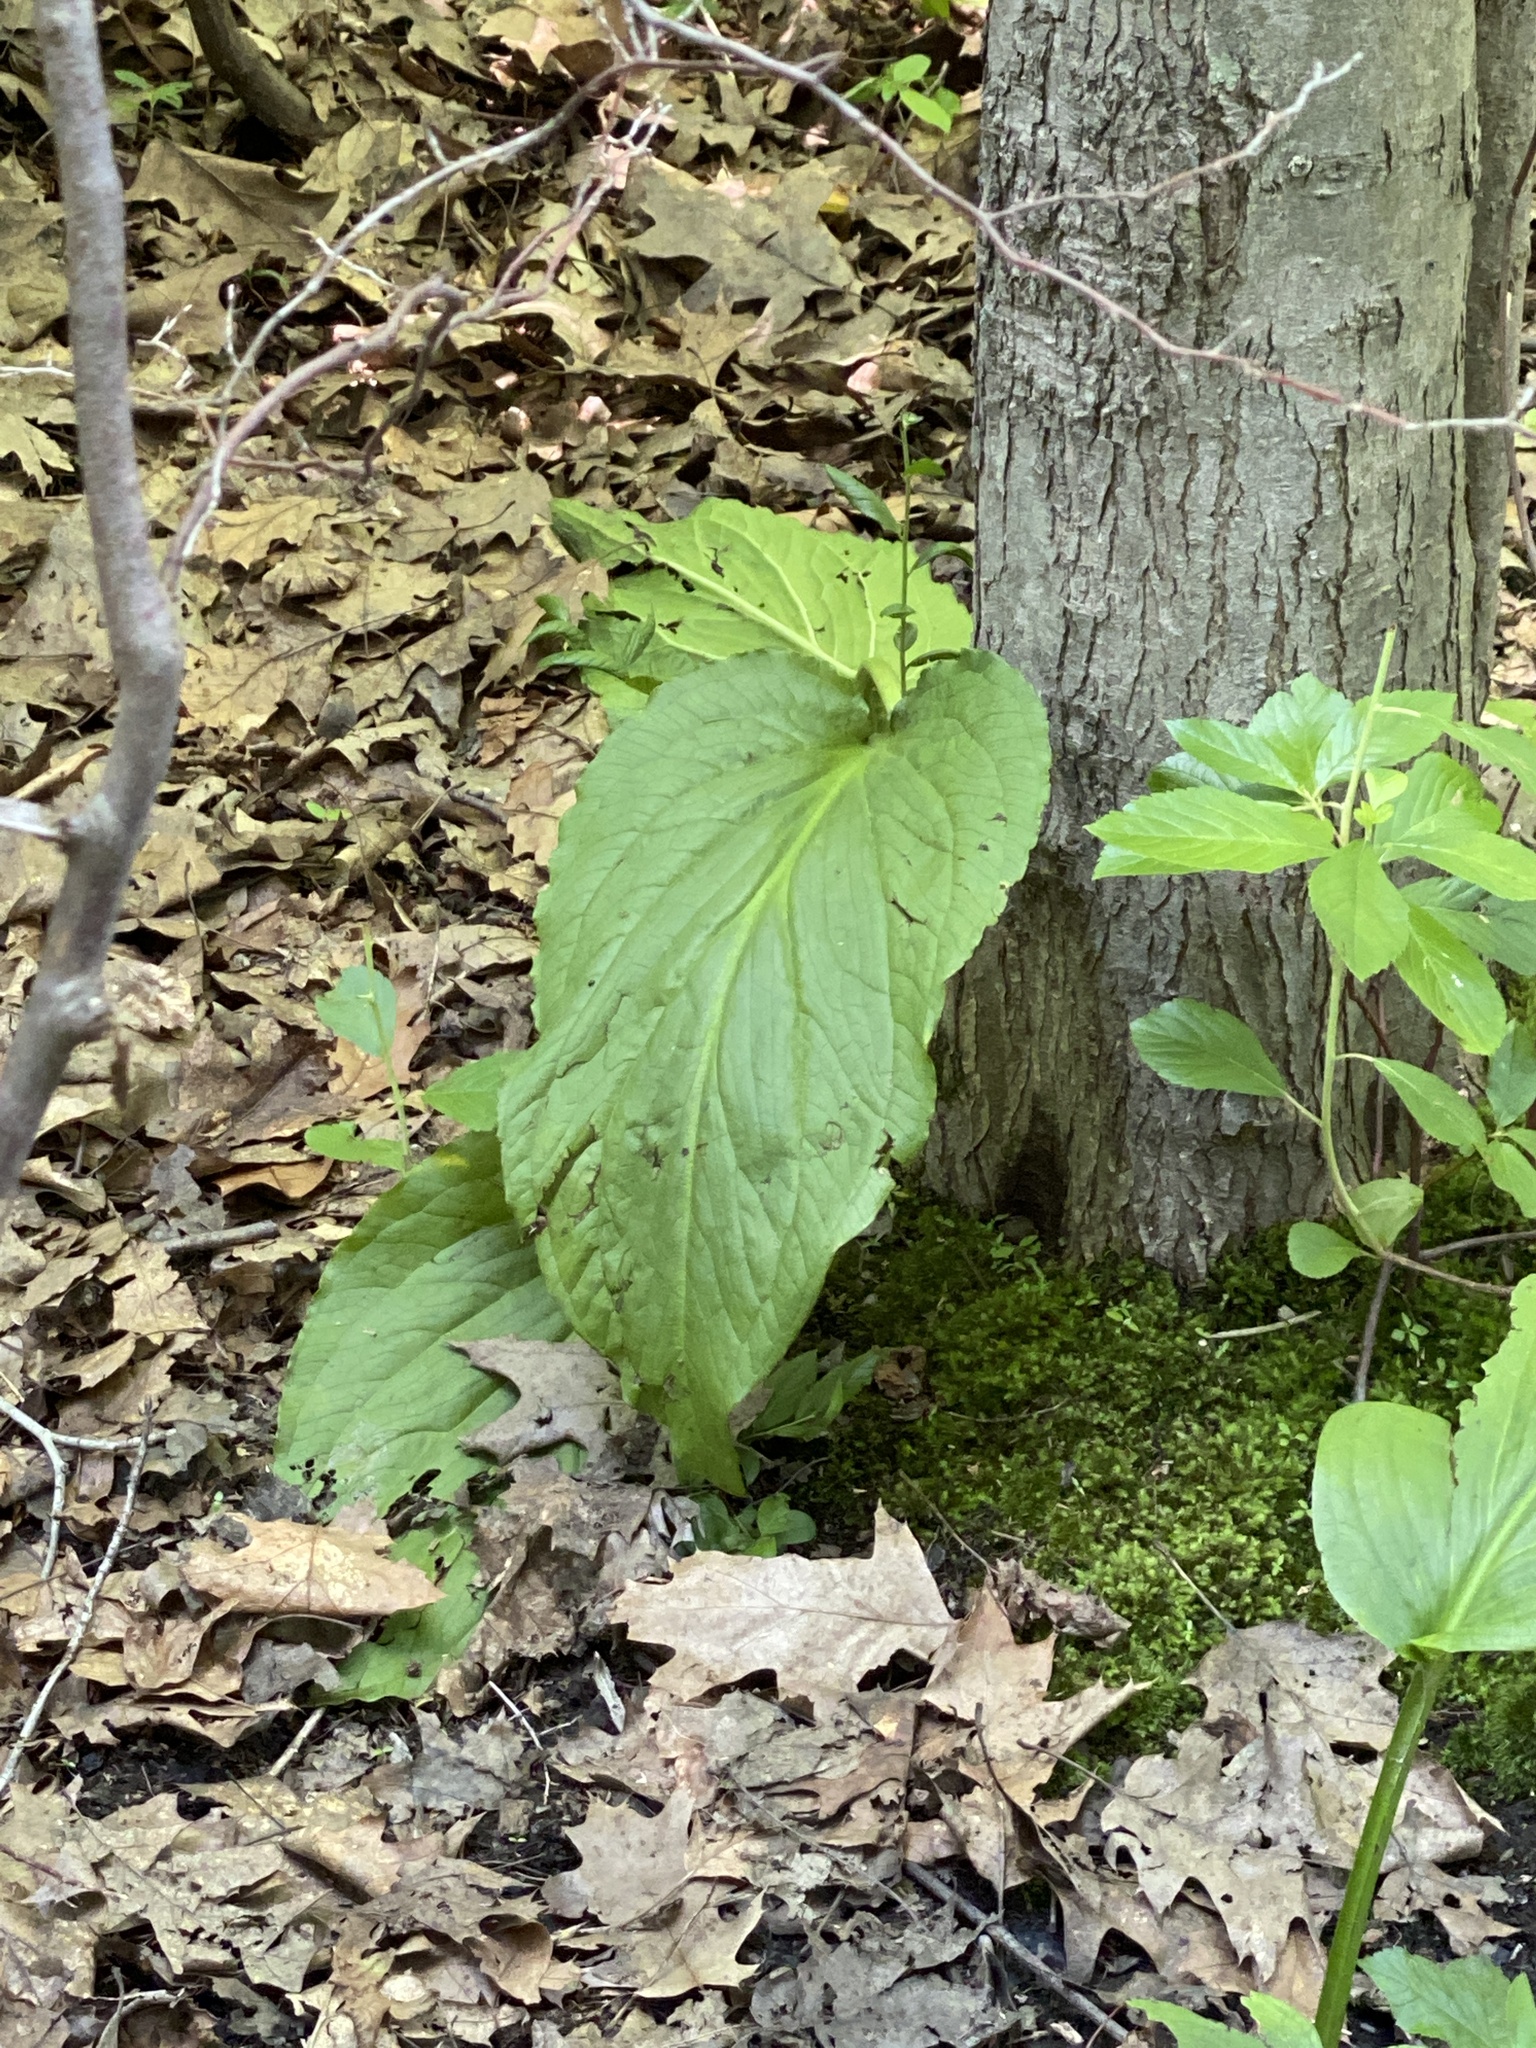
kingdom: Plantae
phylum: Tracheophyta
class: Liliopsida
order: Alismatales
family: Araceae
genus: Symplocarpus
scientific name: Symplocarpus foetidus
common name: Eastern skunk cabbage
